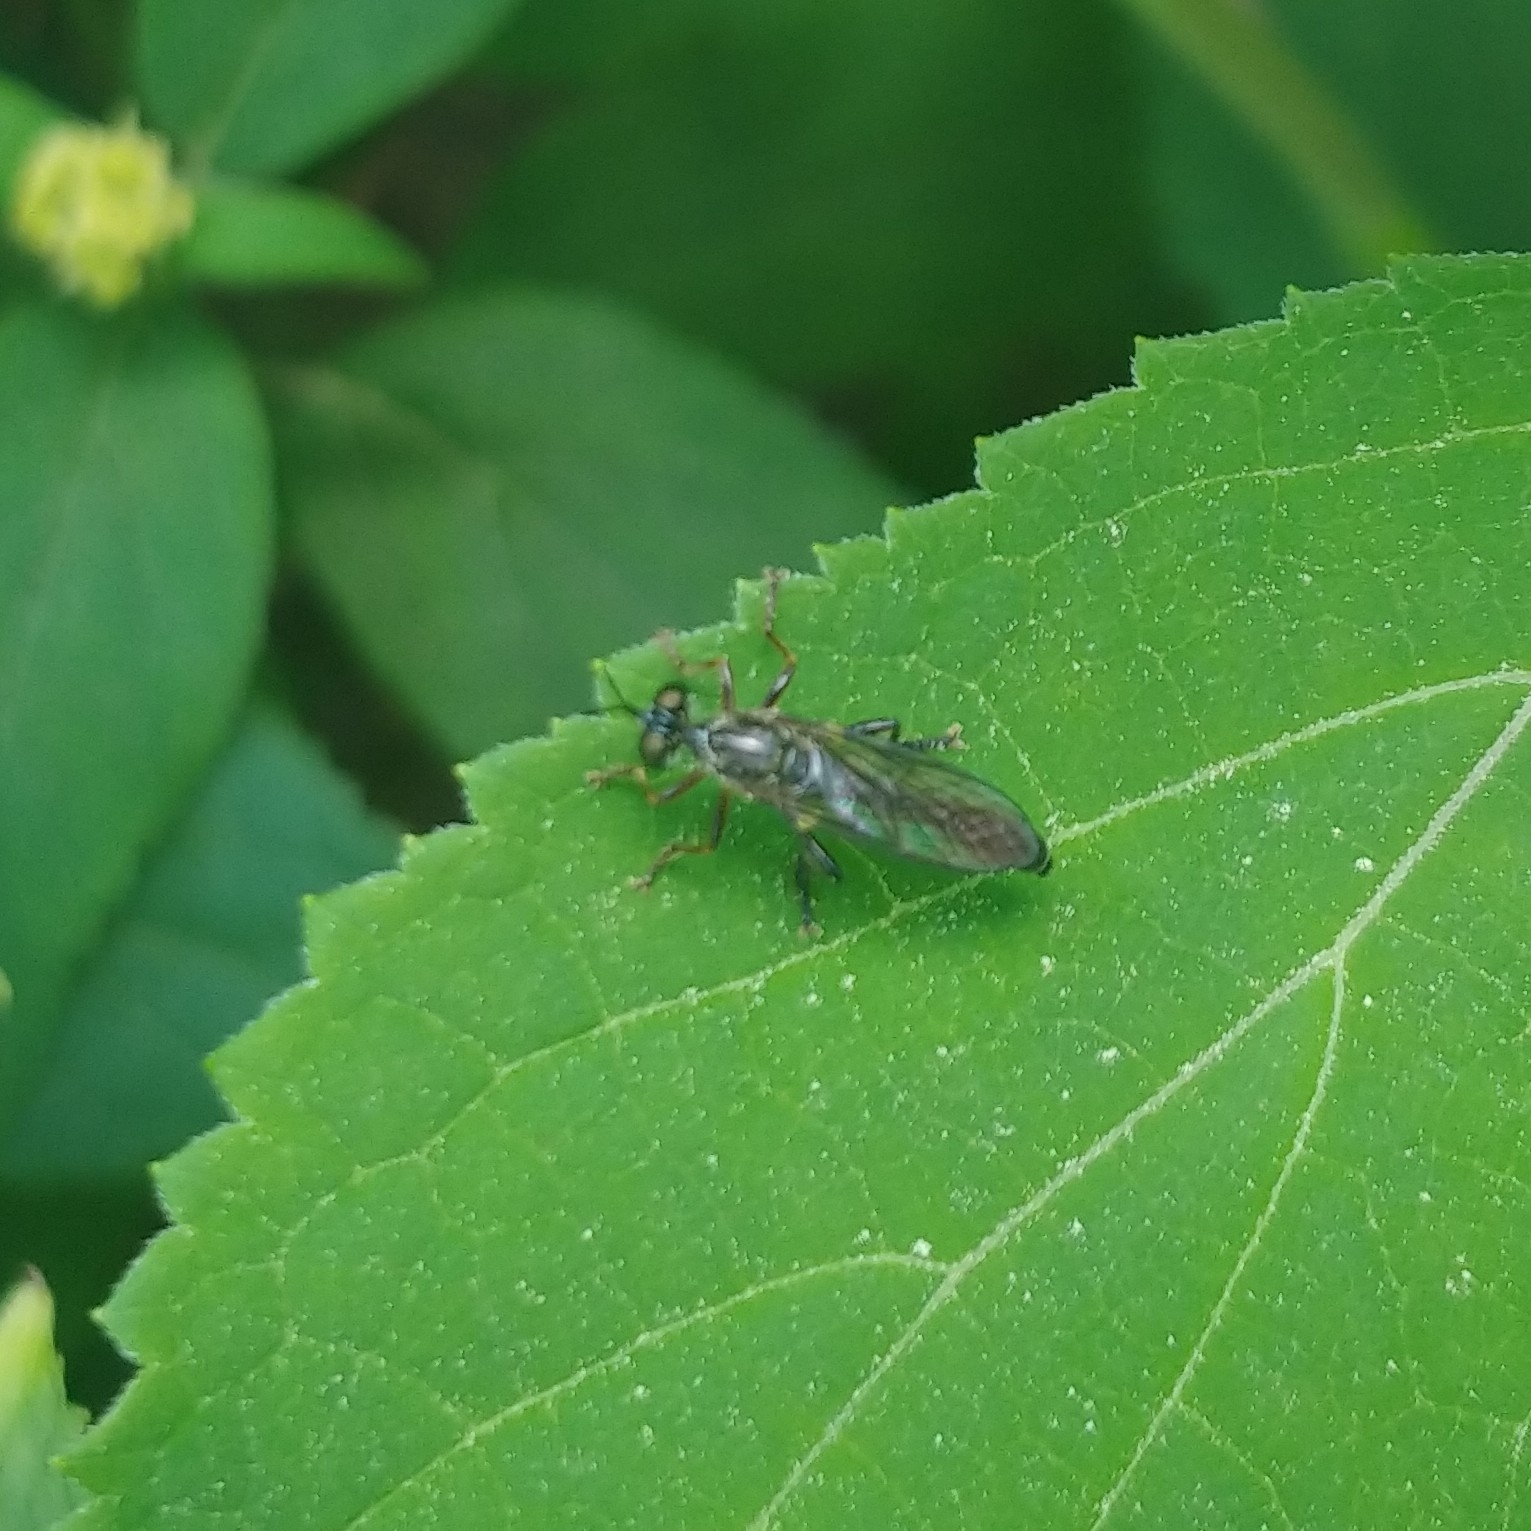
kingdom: Animalia
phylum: Arthropoda
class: Insecta
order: Diptera
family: Asilidae
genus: Dioctria
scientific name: Dioctria hyalipennis
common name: Stripe-legged robberfly
